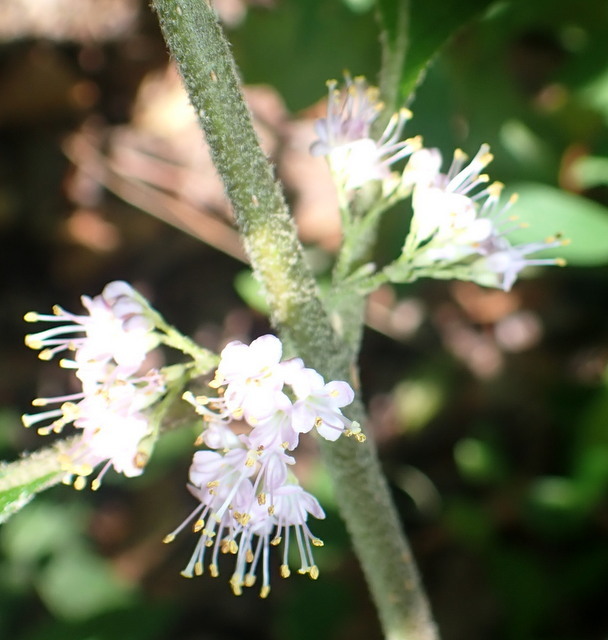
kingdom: Plantae
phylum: Tracheophyta
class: Magnoliopsida
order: Lamiales
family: Lamiaceae
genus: Callicarpa
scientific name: Callicarpa americana
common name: American beautyberry
